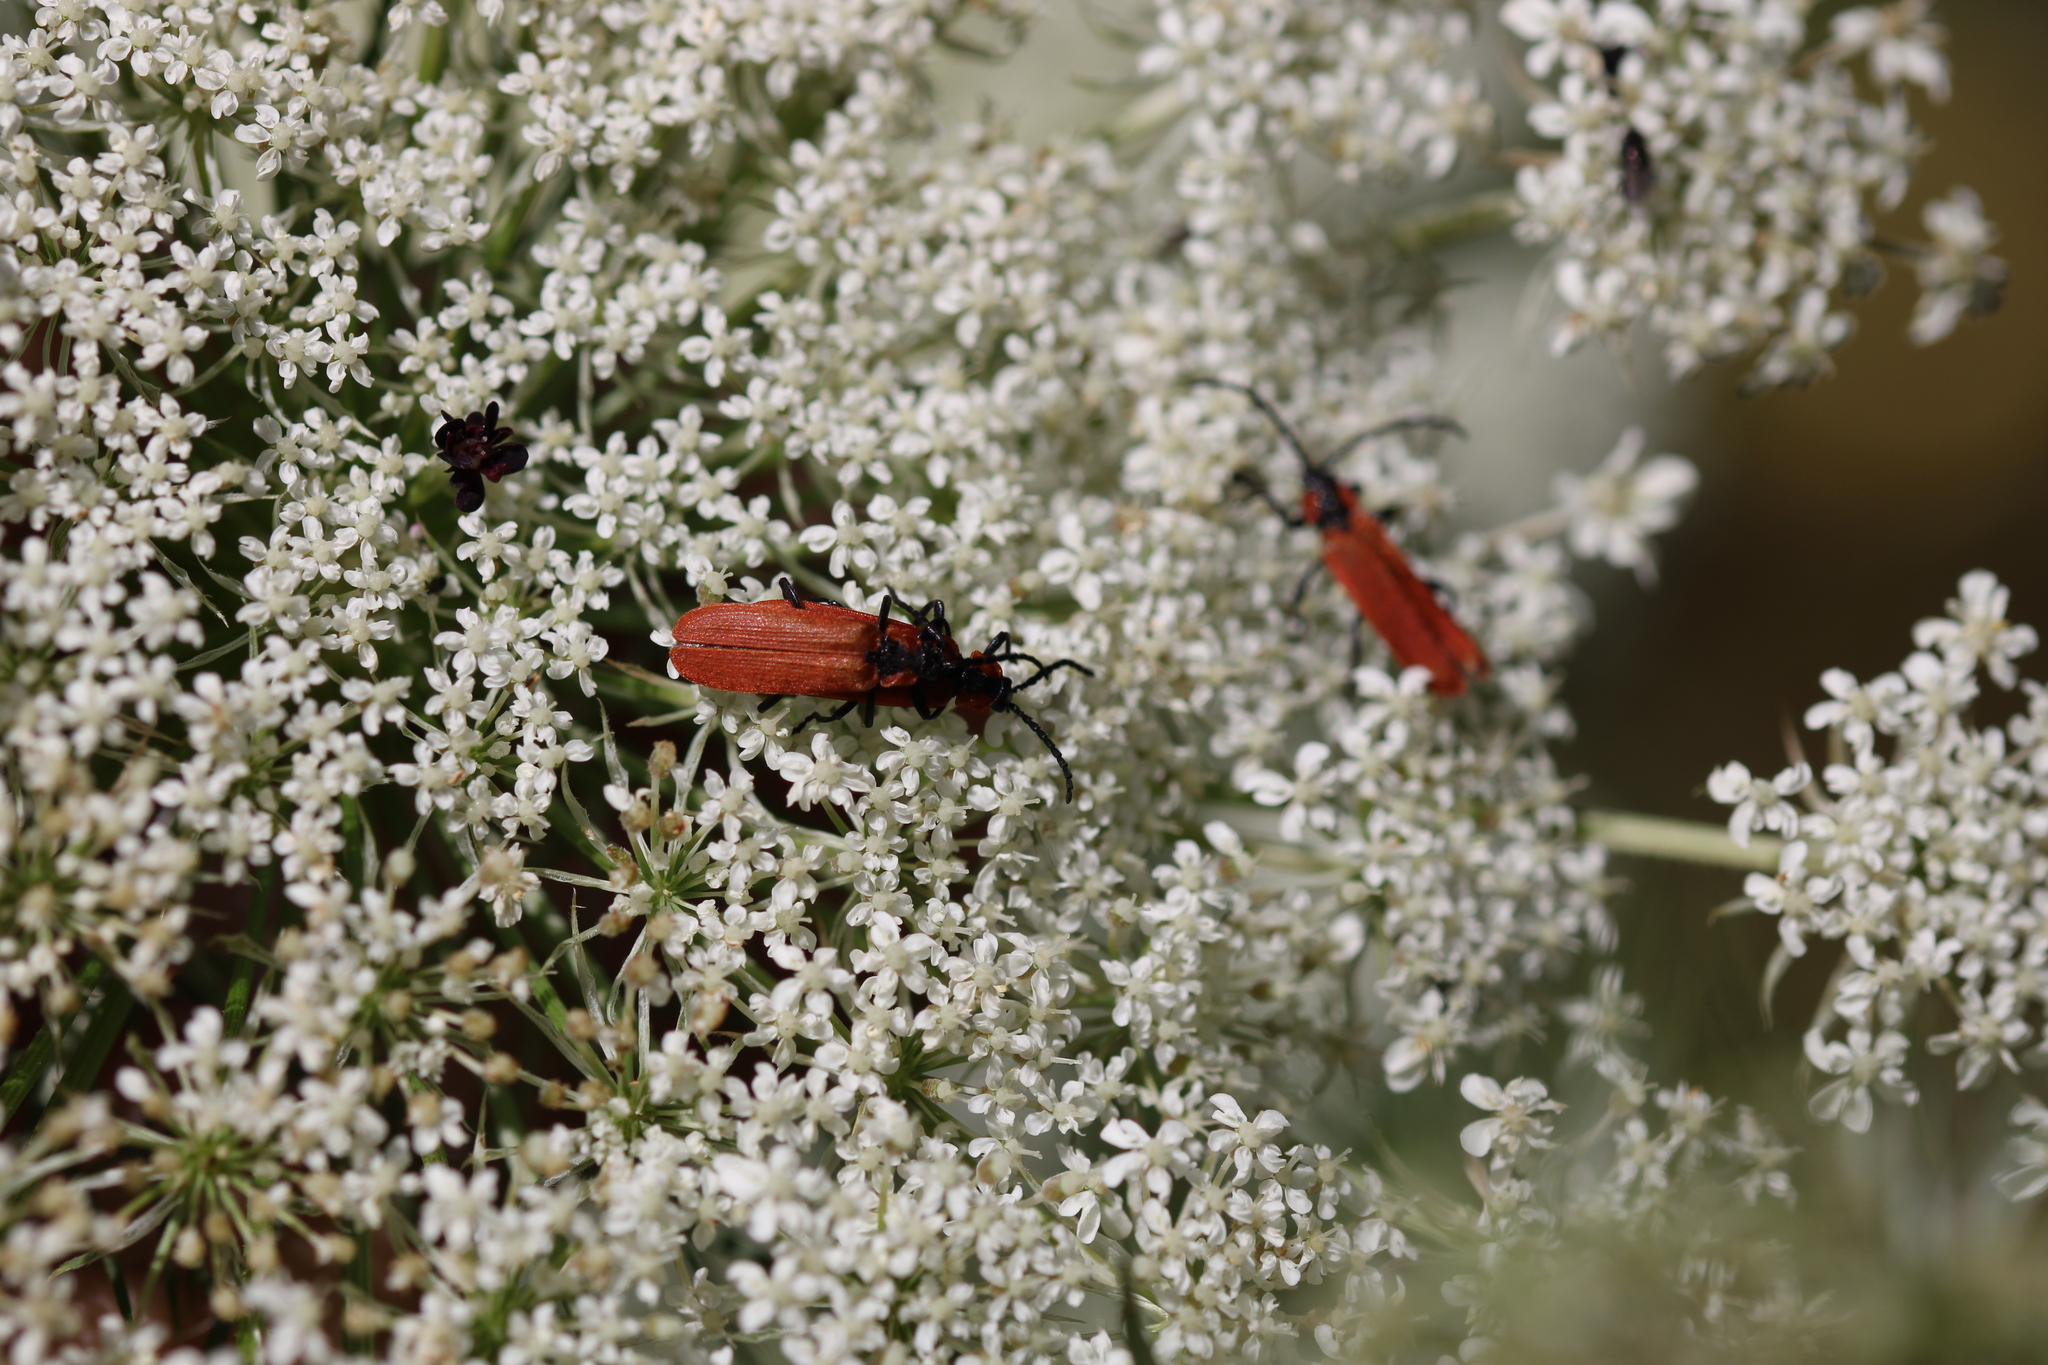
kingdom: Animalia
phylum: Arthropoda
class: Insecta
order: Coleoptera
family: Lycidae
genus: Lygistopterus
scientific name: Lygistopterus sanguineus
